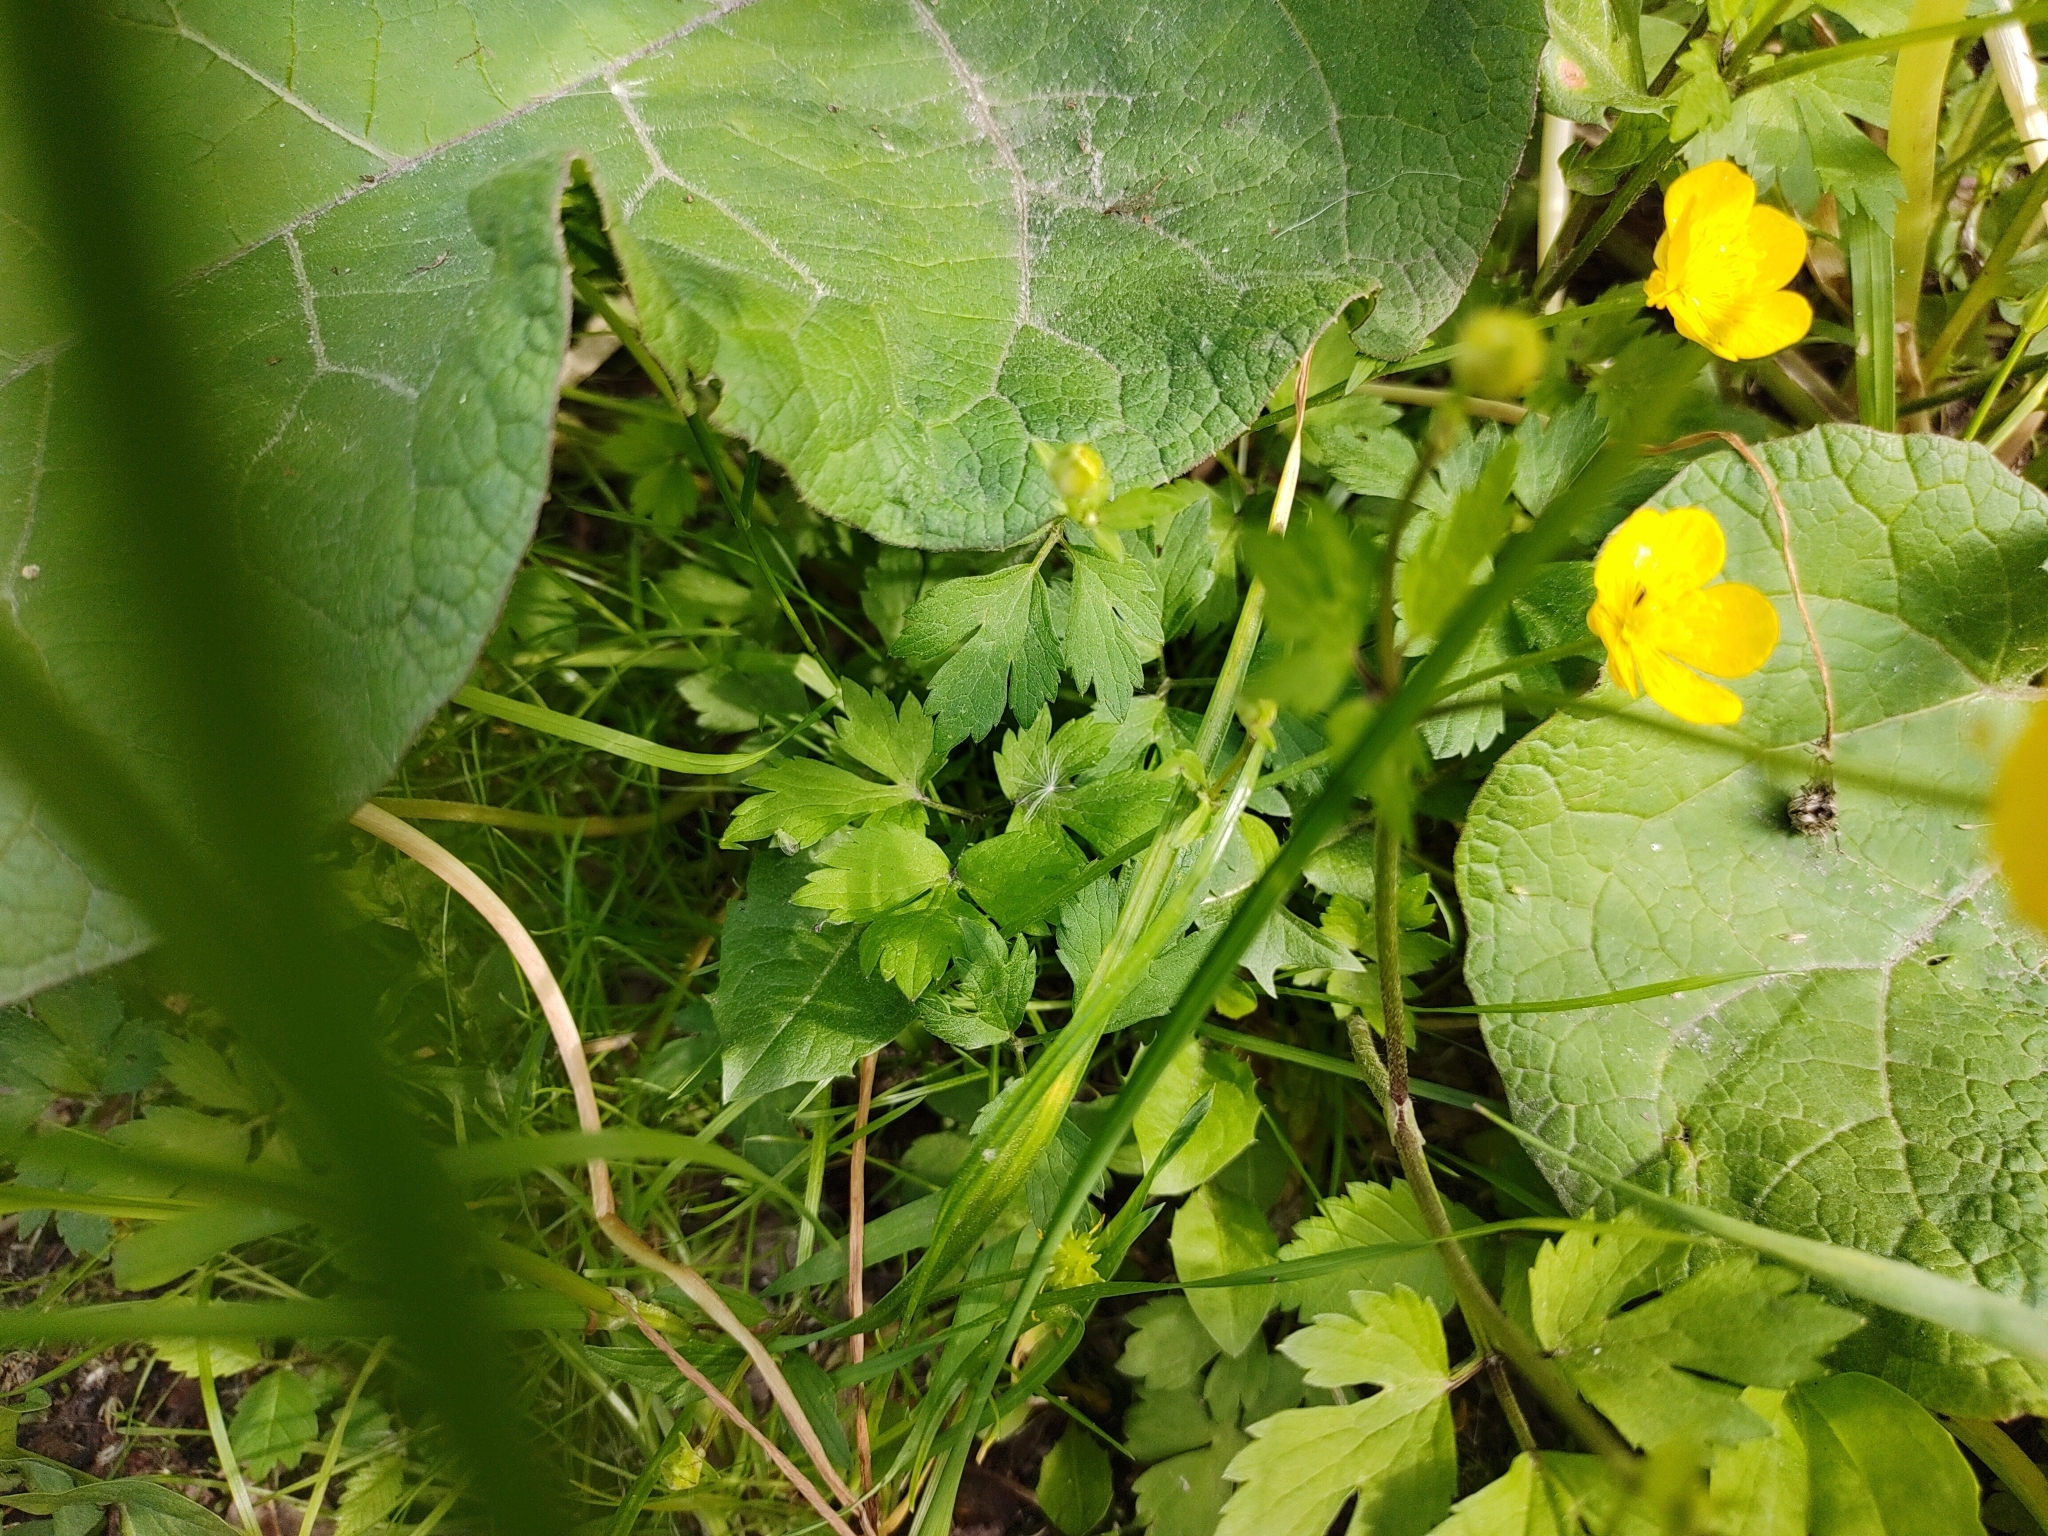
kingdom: Plantae
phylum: Tracheophyta
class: Magnoliopsida
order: Ranunculales
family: Ranunculaceae
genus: Ranunculus
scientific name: Ranunculus repens
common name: Creeping buttercup
